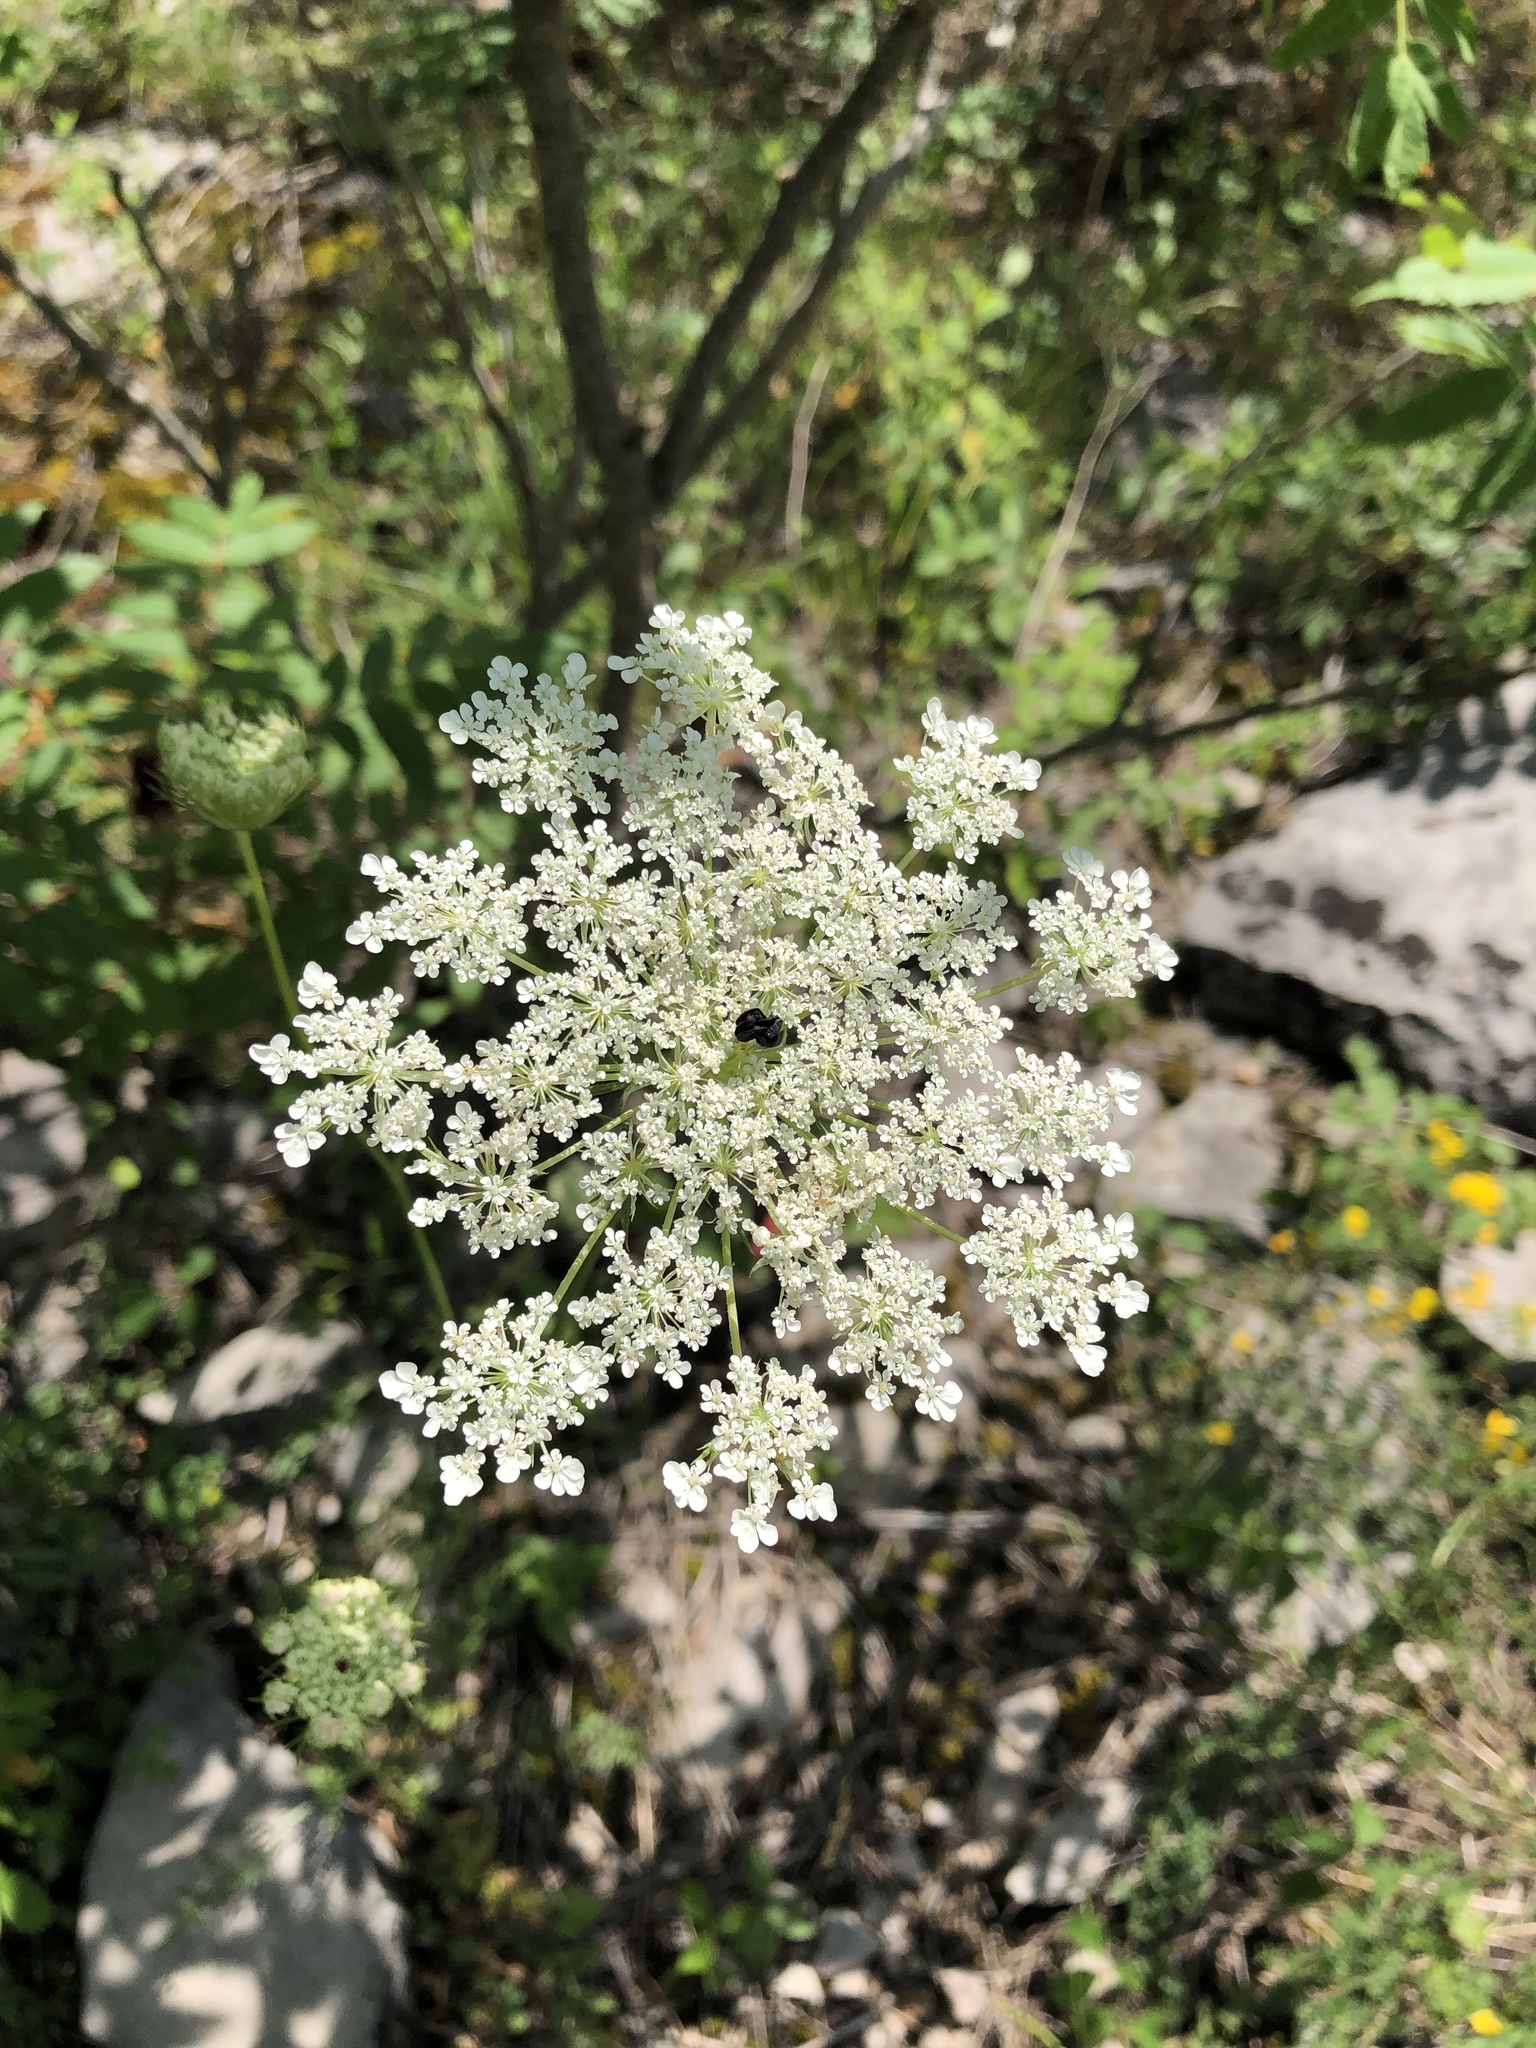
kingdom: Plantae
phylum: Tracheophyta
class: Magnoliopsida
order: Apiales
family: Apiaceae
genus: Daucus
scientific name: Daucus carota
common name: Wild carrot
